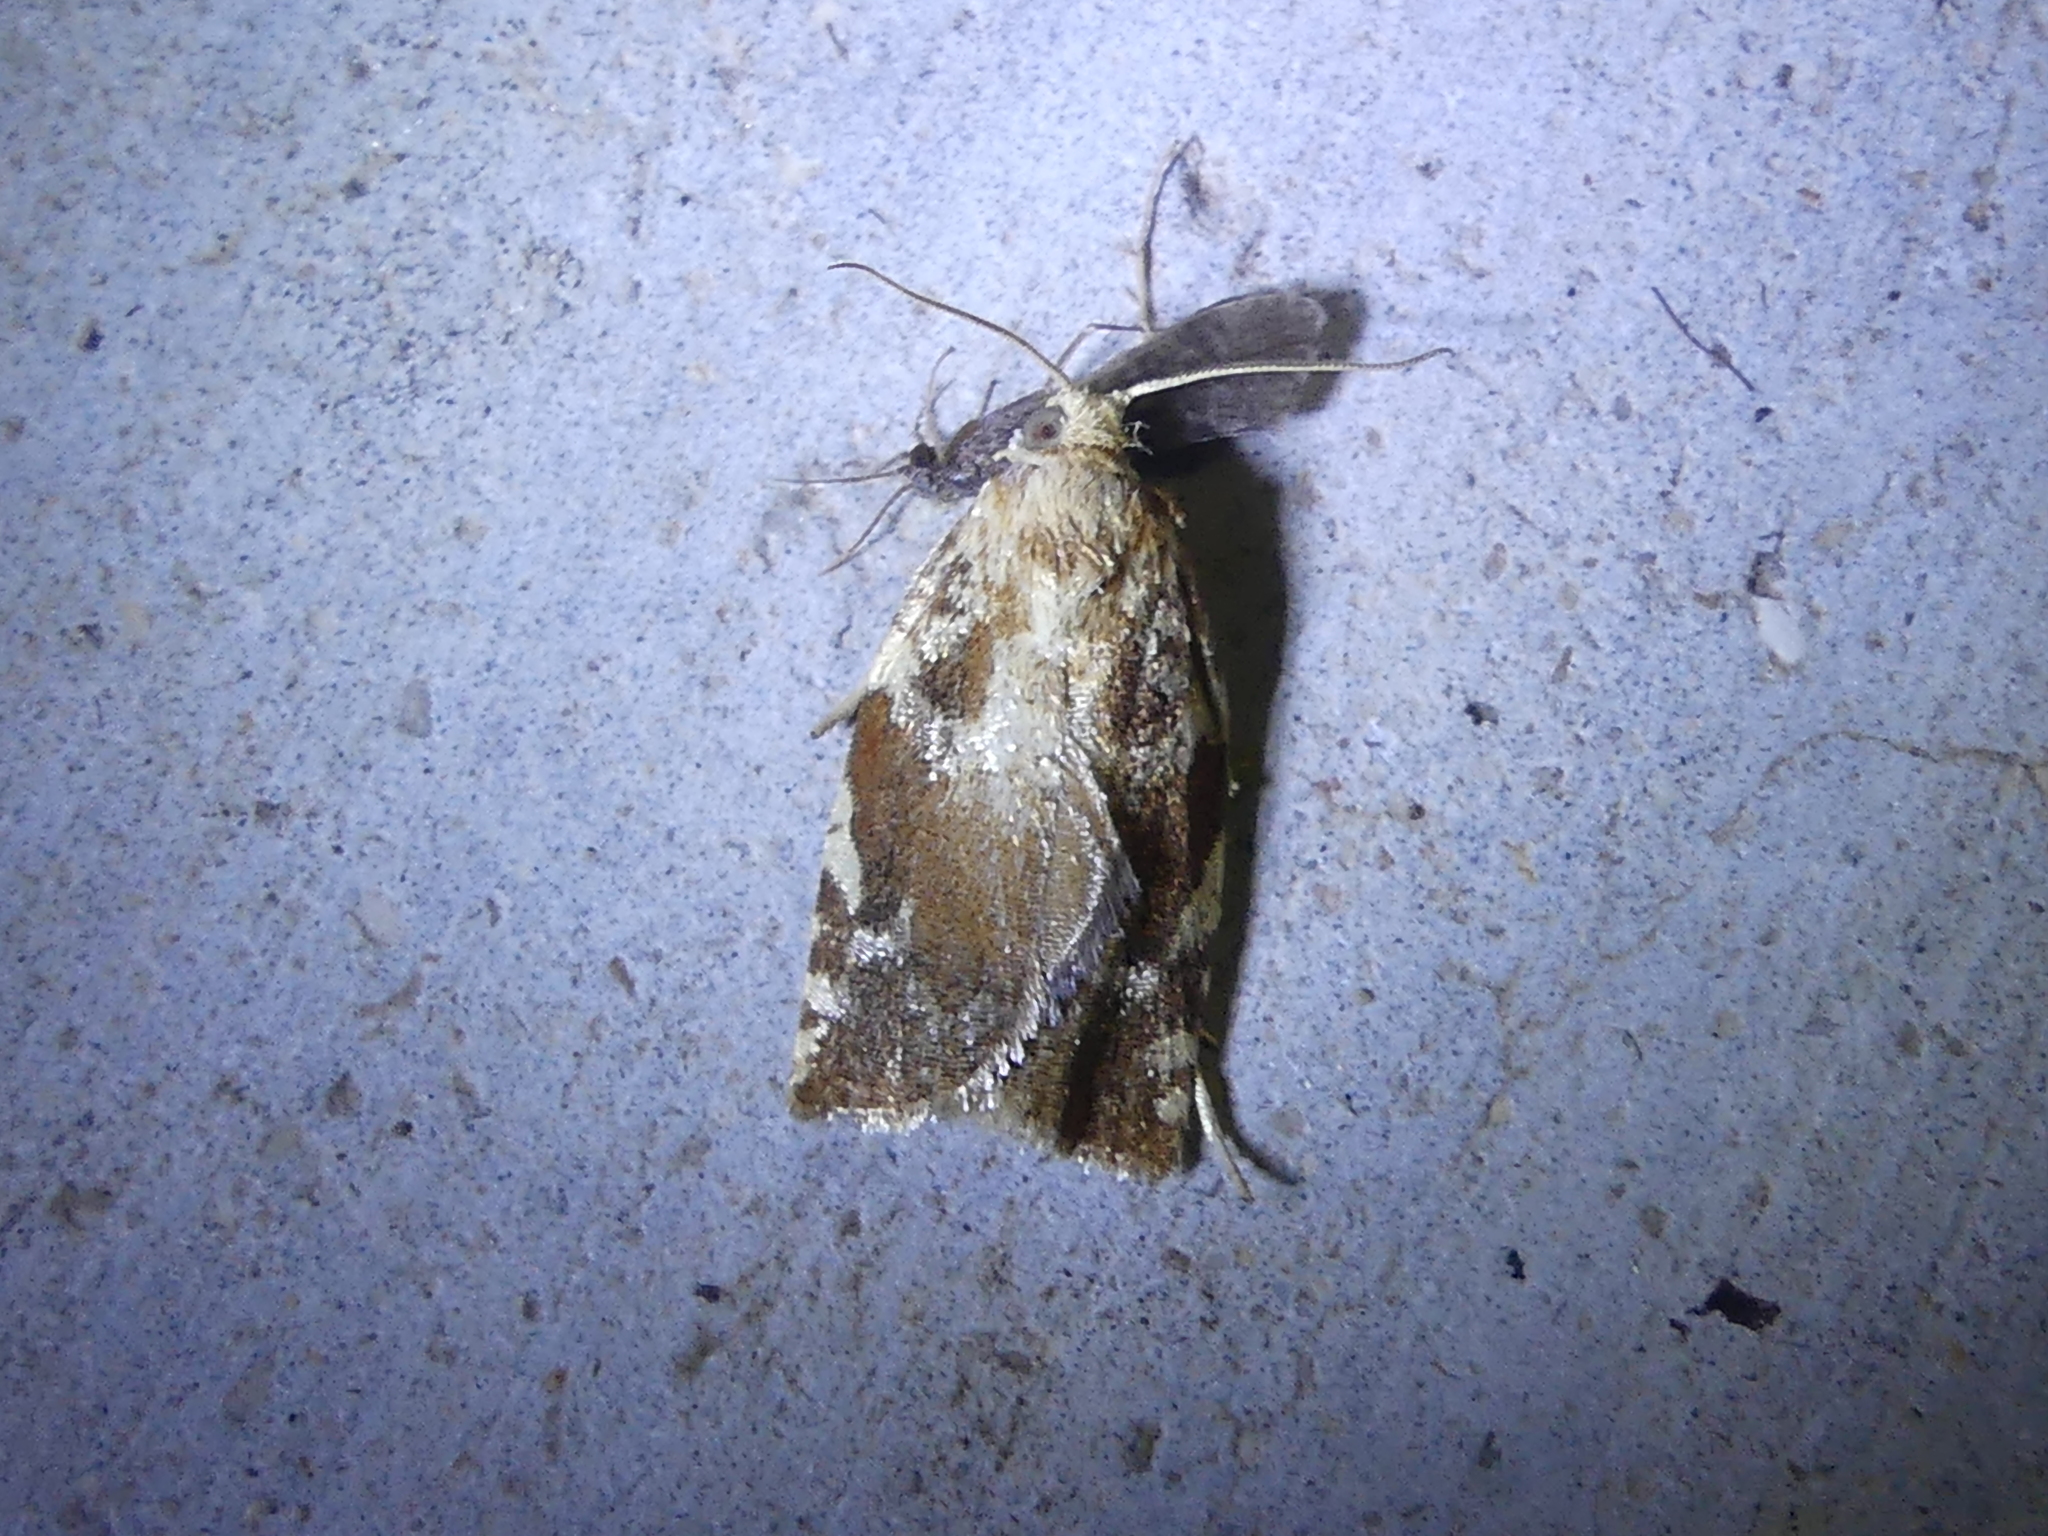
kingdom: Animalia
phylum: Arthropoda
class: Insecta
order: Lepidoptera
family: Tortricidae
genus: Archips
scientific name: Archips semiferanus
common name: Oak leafroller
